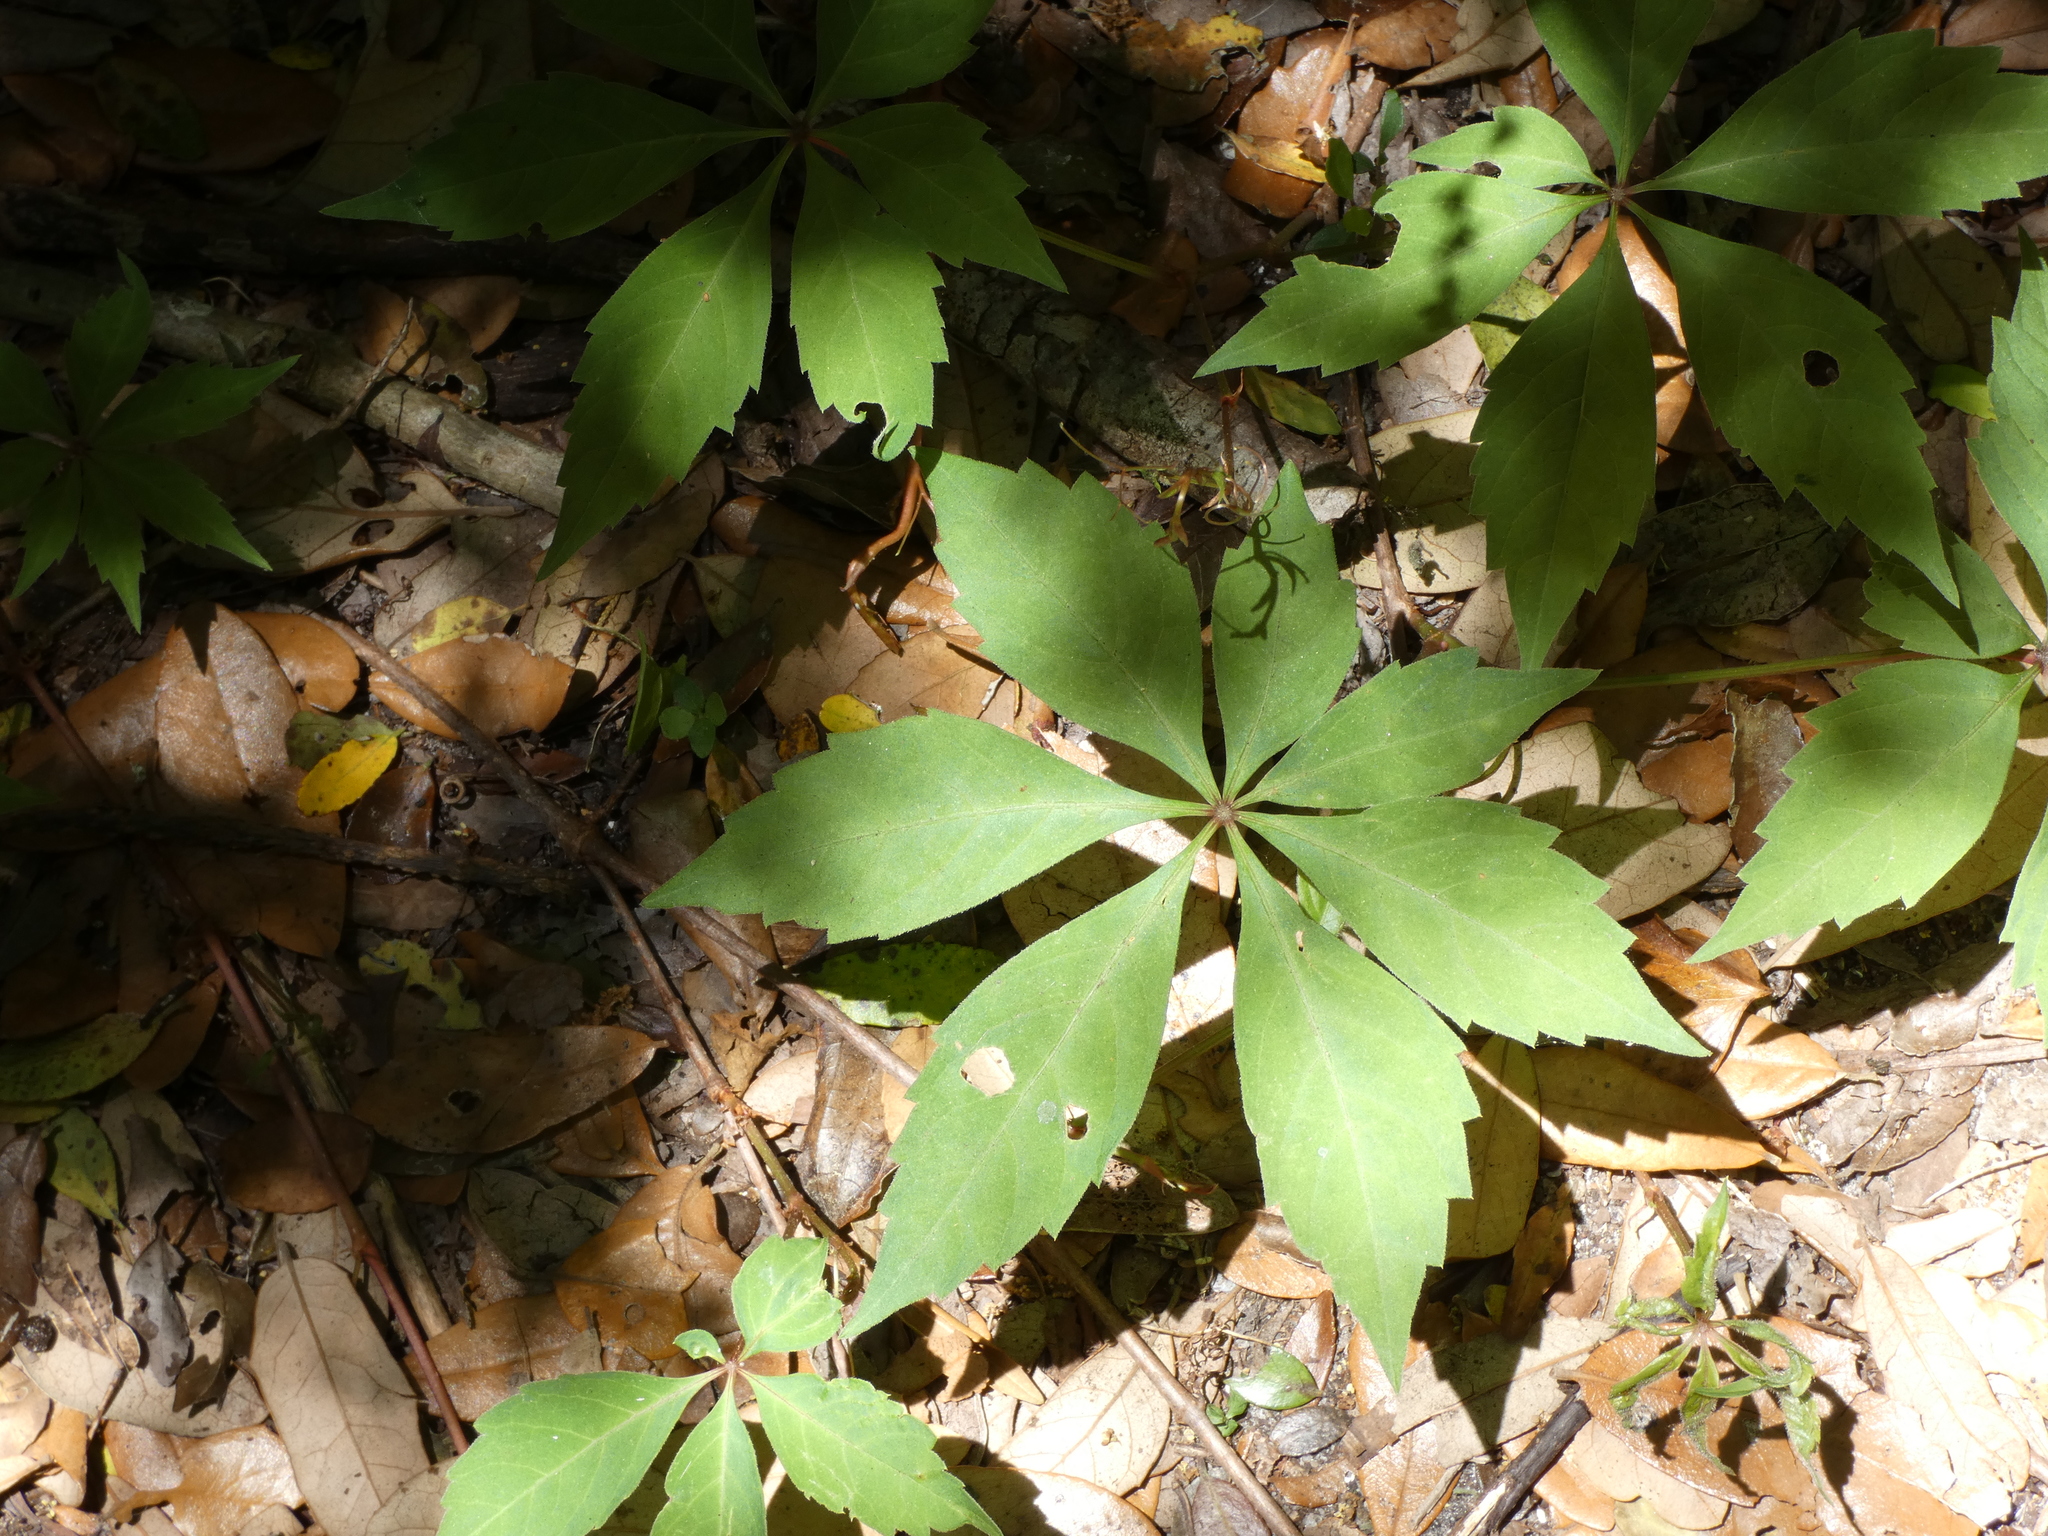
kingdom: Plantae
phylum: Tracheophyta
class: Magnoliopsida
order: Vitales
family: Vitaceae
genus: Parthenocissus
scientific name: Parthenocissus quinquefolia
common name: Virginia-creeper
